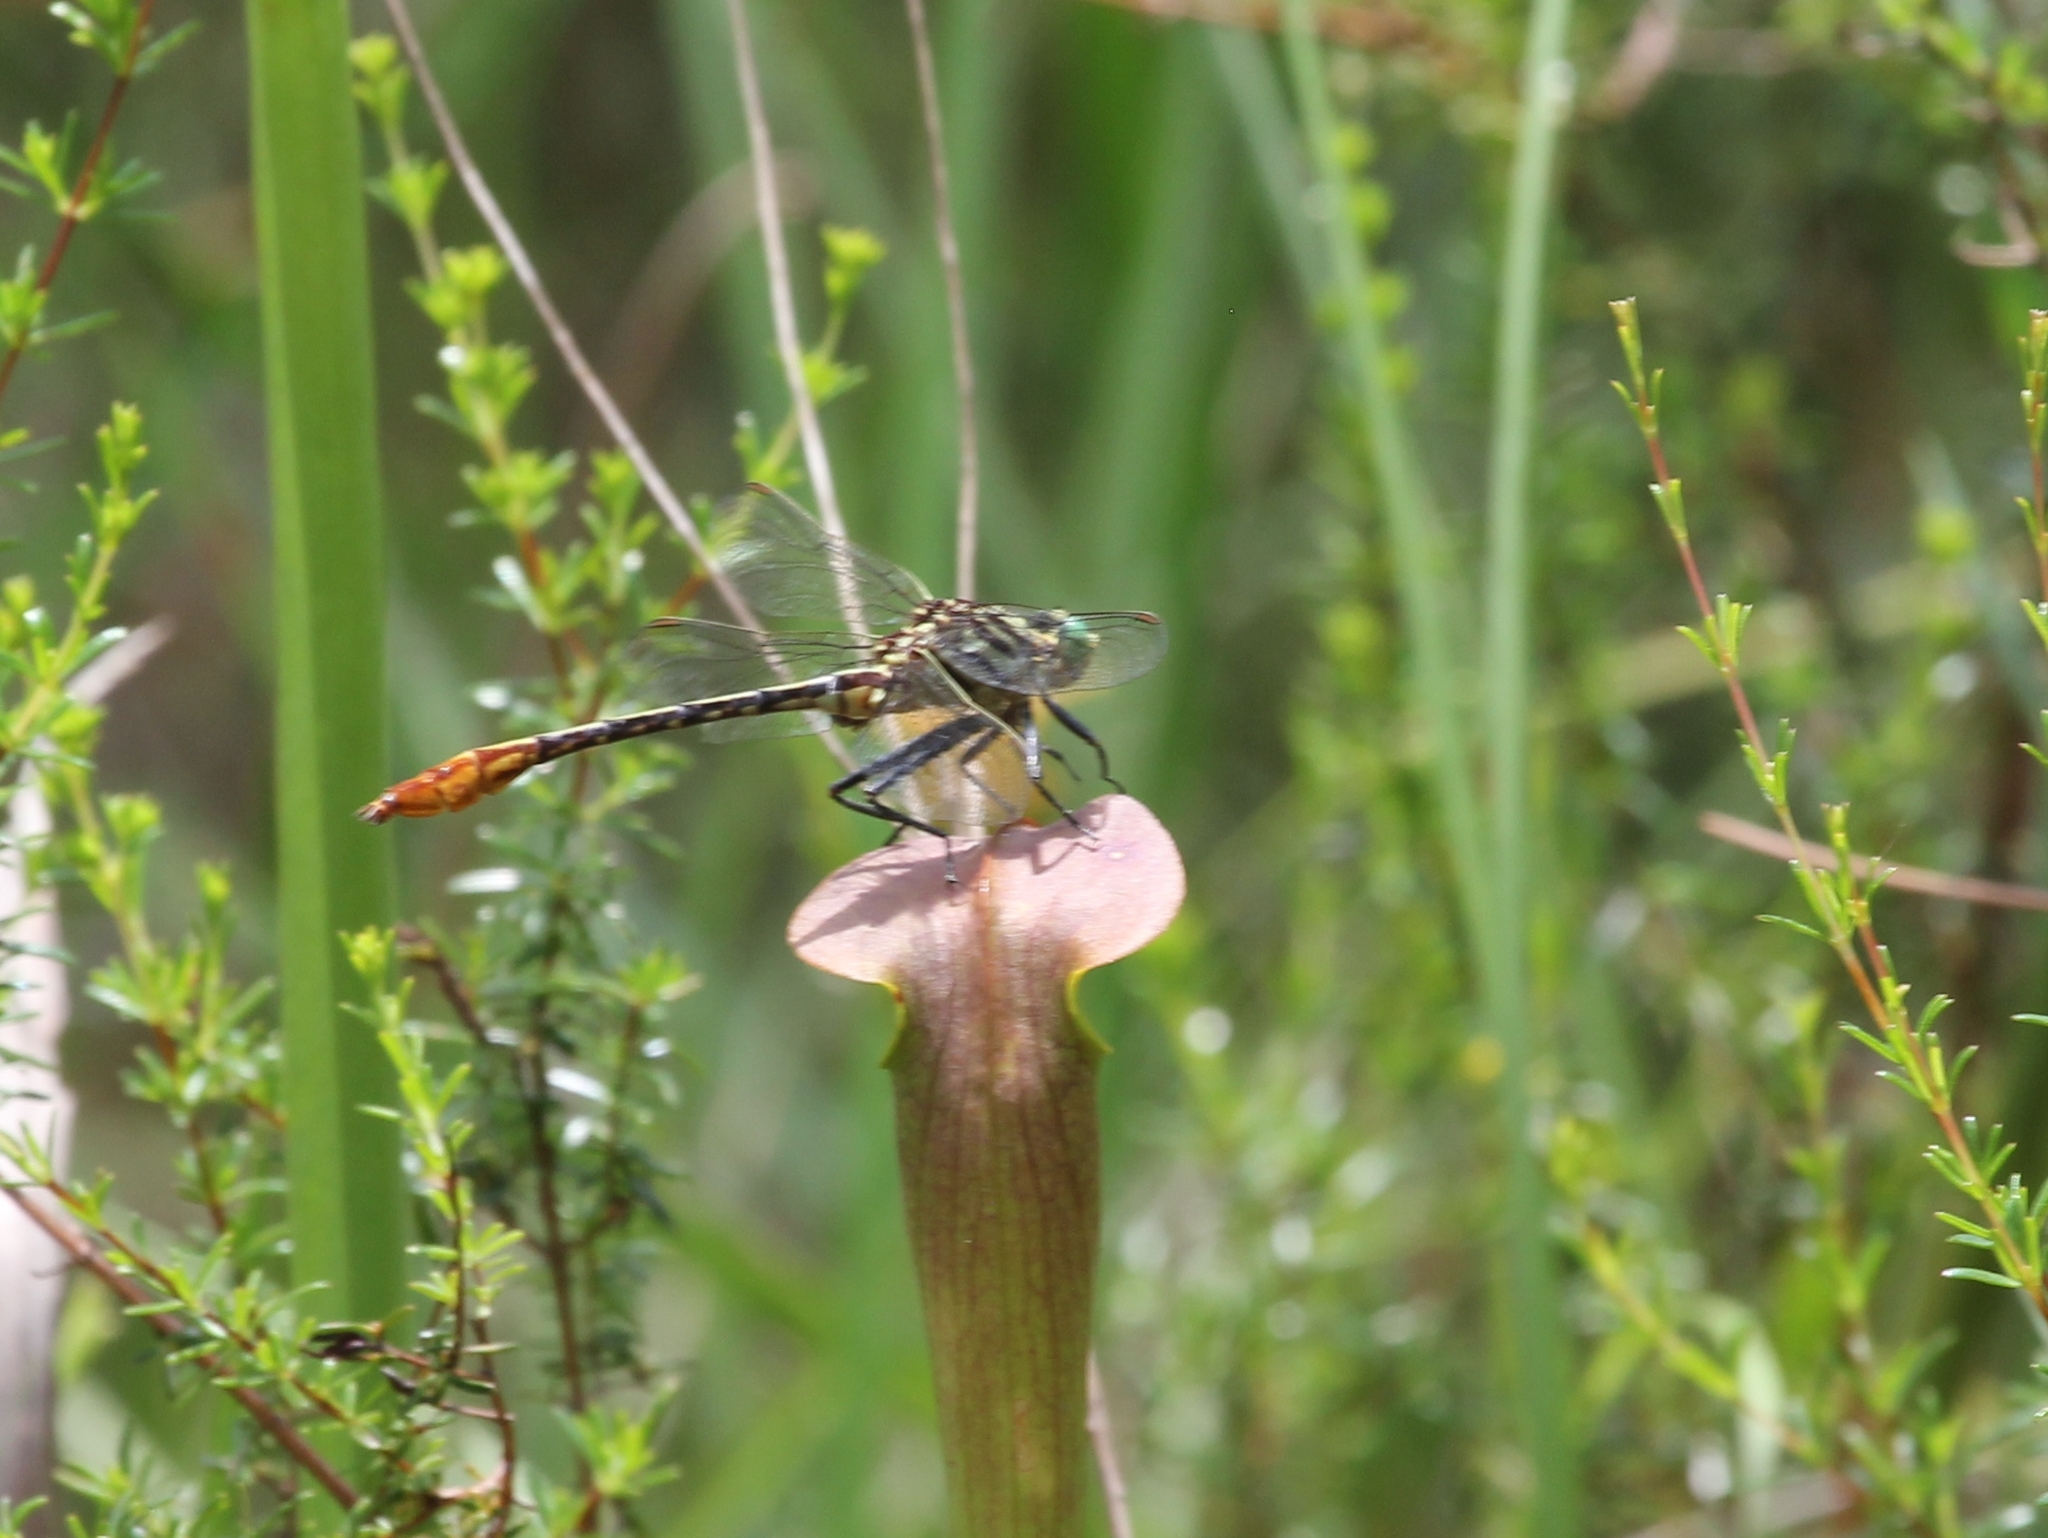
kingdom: Animalia
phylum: Arthropoda
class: Insecta
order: Odonata
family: Gomphidae
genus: Dromogomphus
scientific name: Dromogomphus armatus
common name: Southeastern spinyleg
